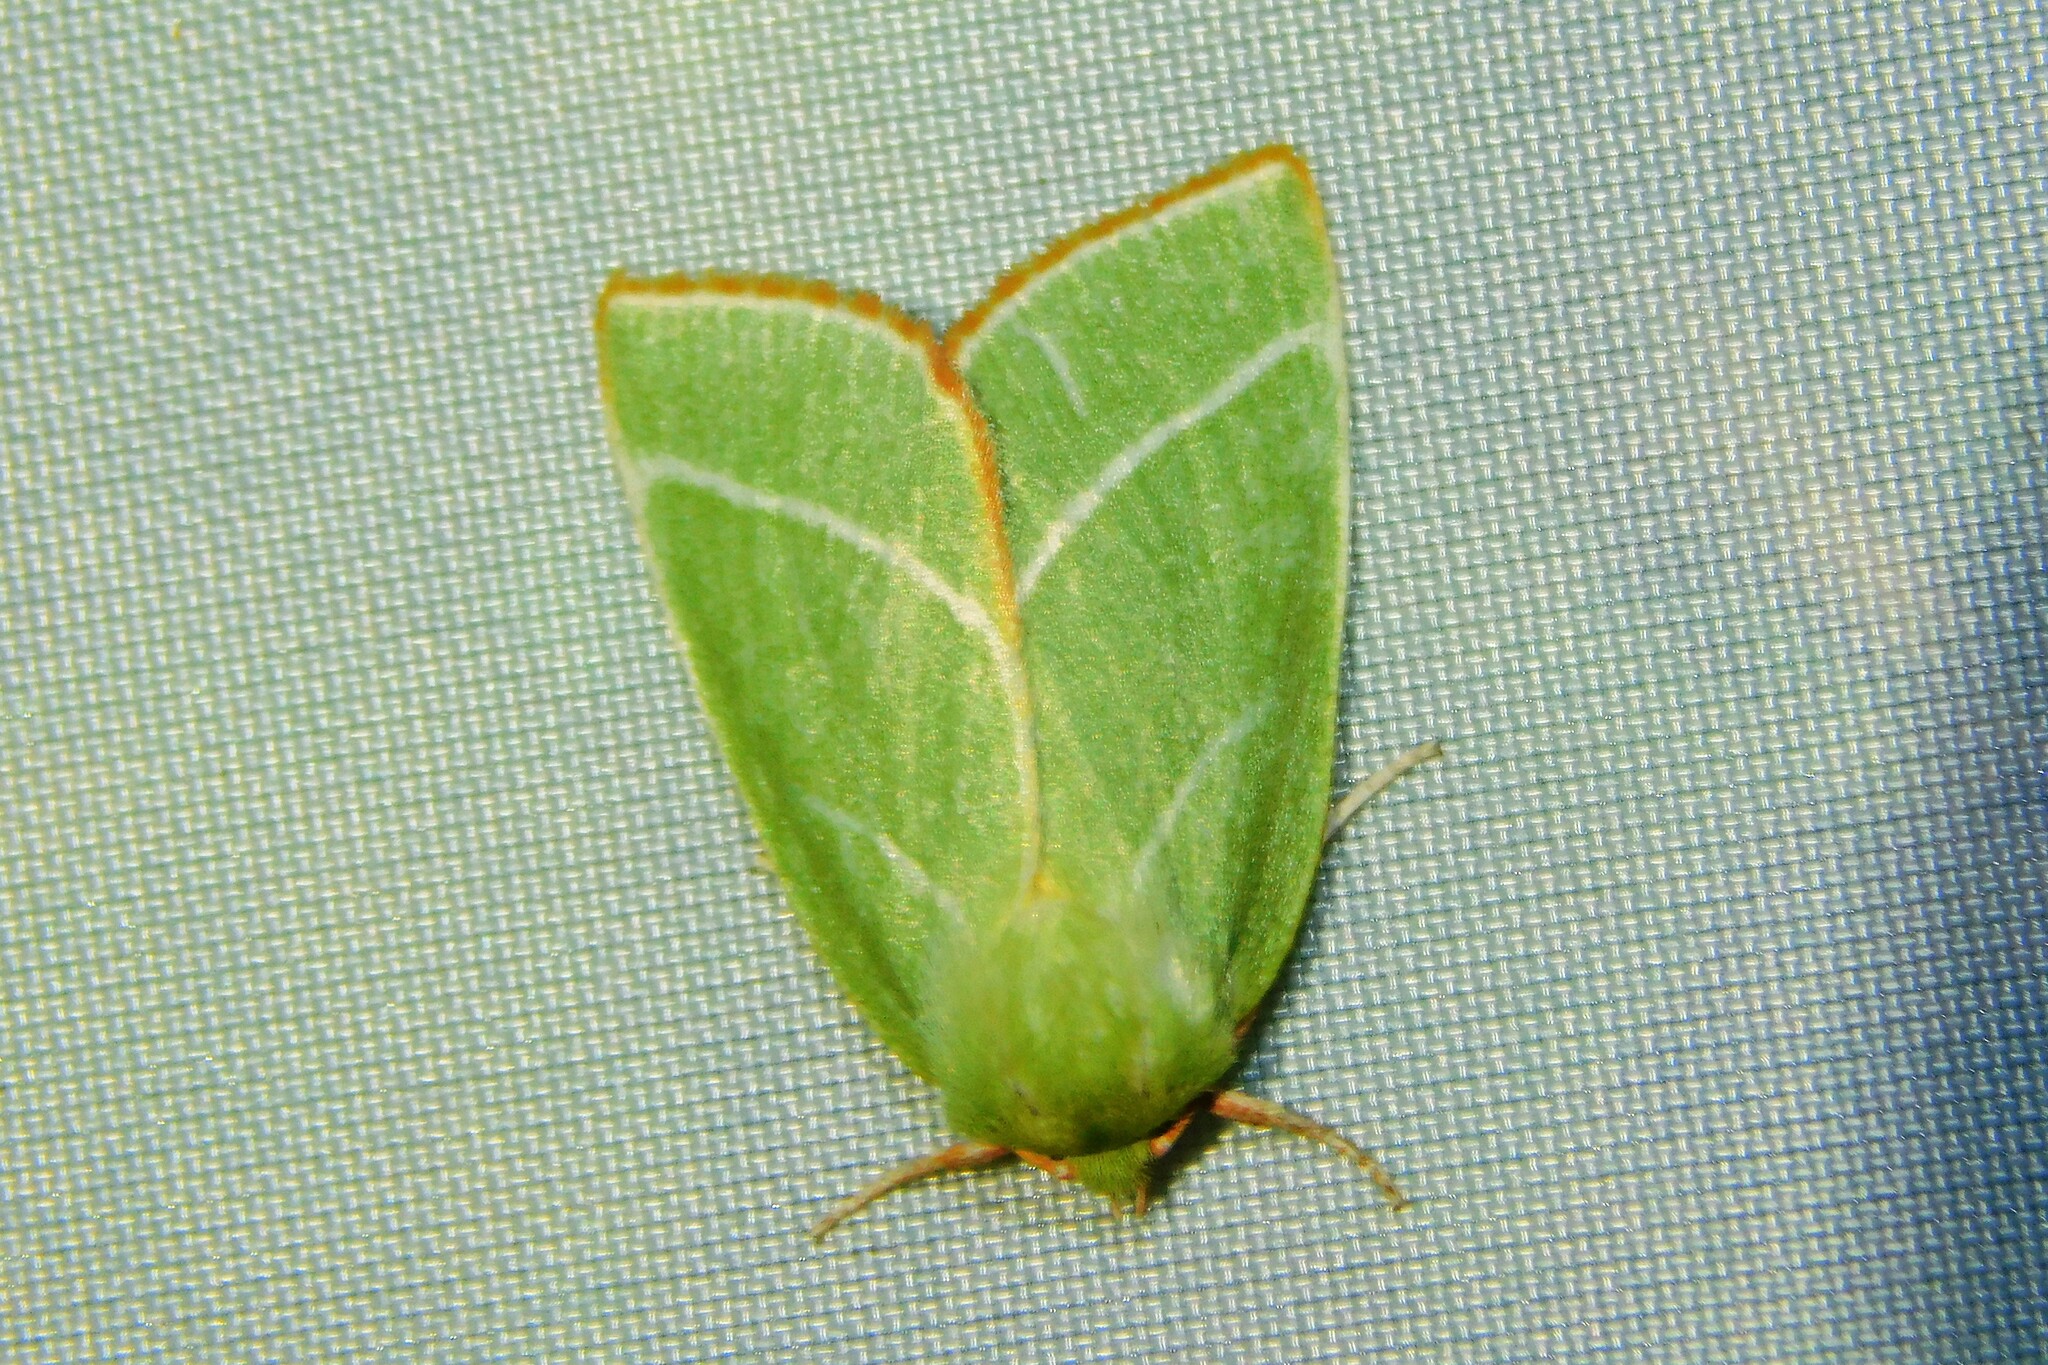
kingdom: Animalia
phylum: Arthropoda
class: Insecta
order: Lepidoptera
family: Nolidae
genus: Pseudoips
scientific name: Pseudoips prasinana
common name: Green silver-lines
